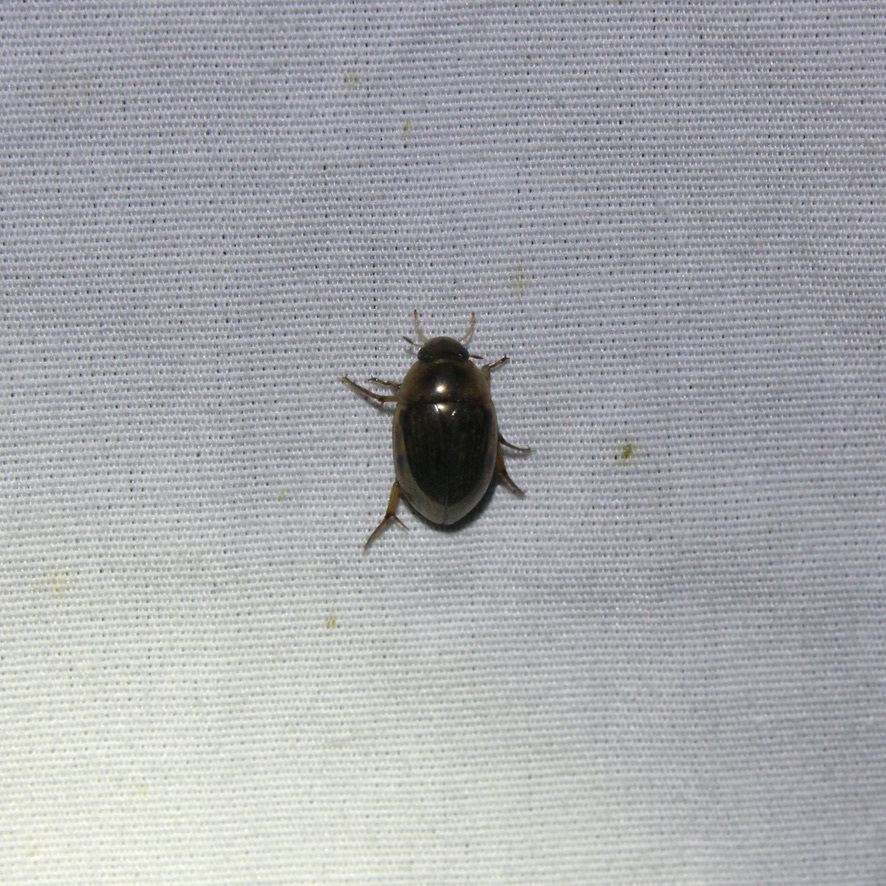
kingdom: Animalia
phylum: Arthropoda
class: Insecta
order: Coleoptera
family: Hydrophilidae
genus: Tropisternus
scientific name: Tropisternus collaris
